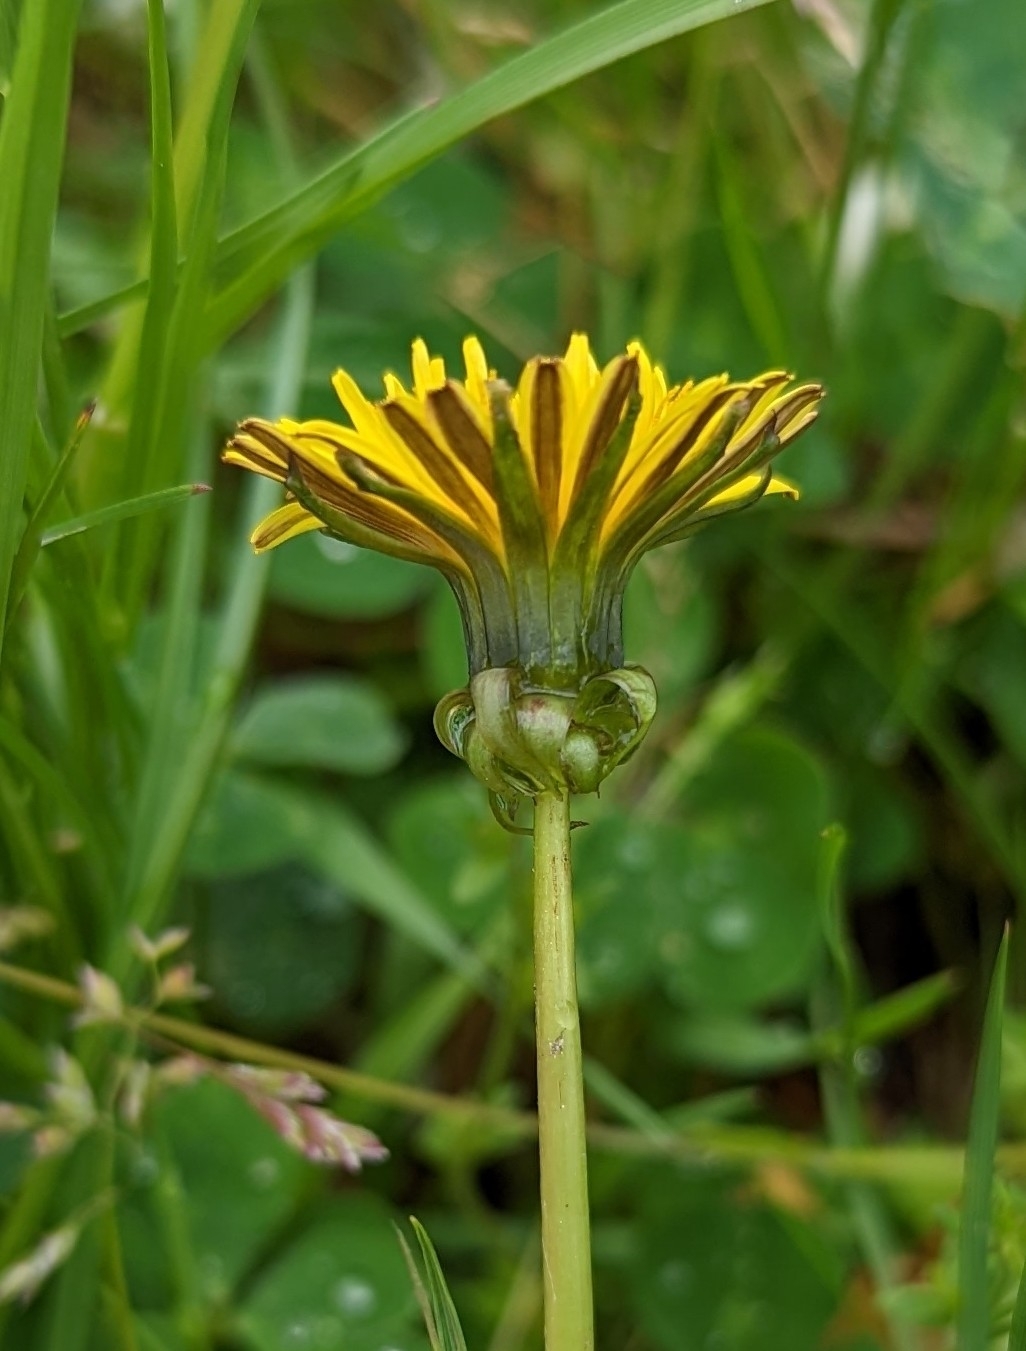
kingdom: Plantae
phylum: Tracheophyta
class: Magnoliopsida
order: Asterales
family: Asteraceae
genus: Taraxacum
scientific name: Taraxacum officinale
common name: Common dandelion
